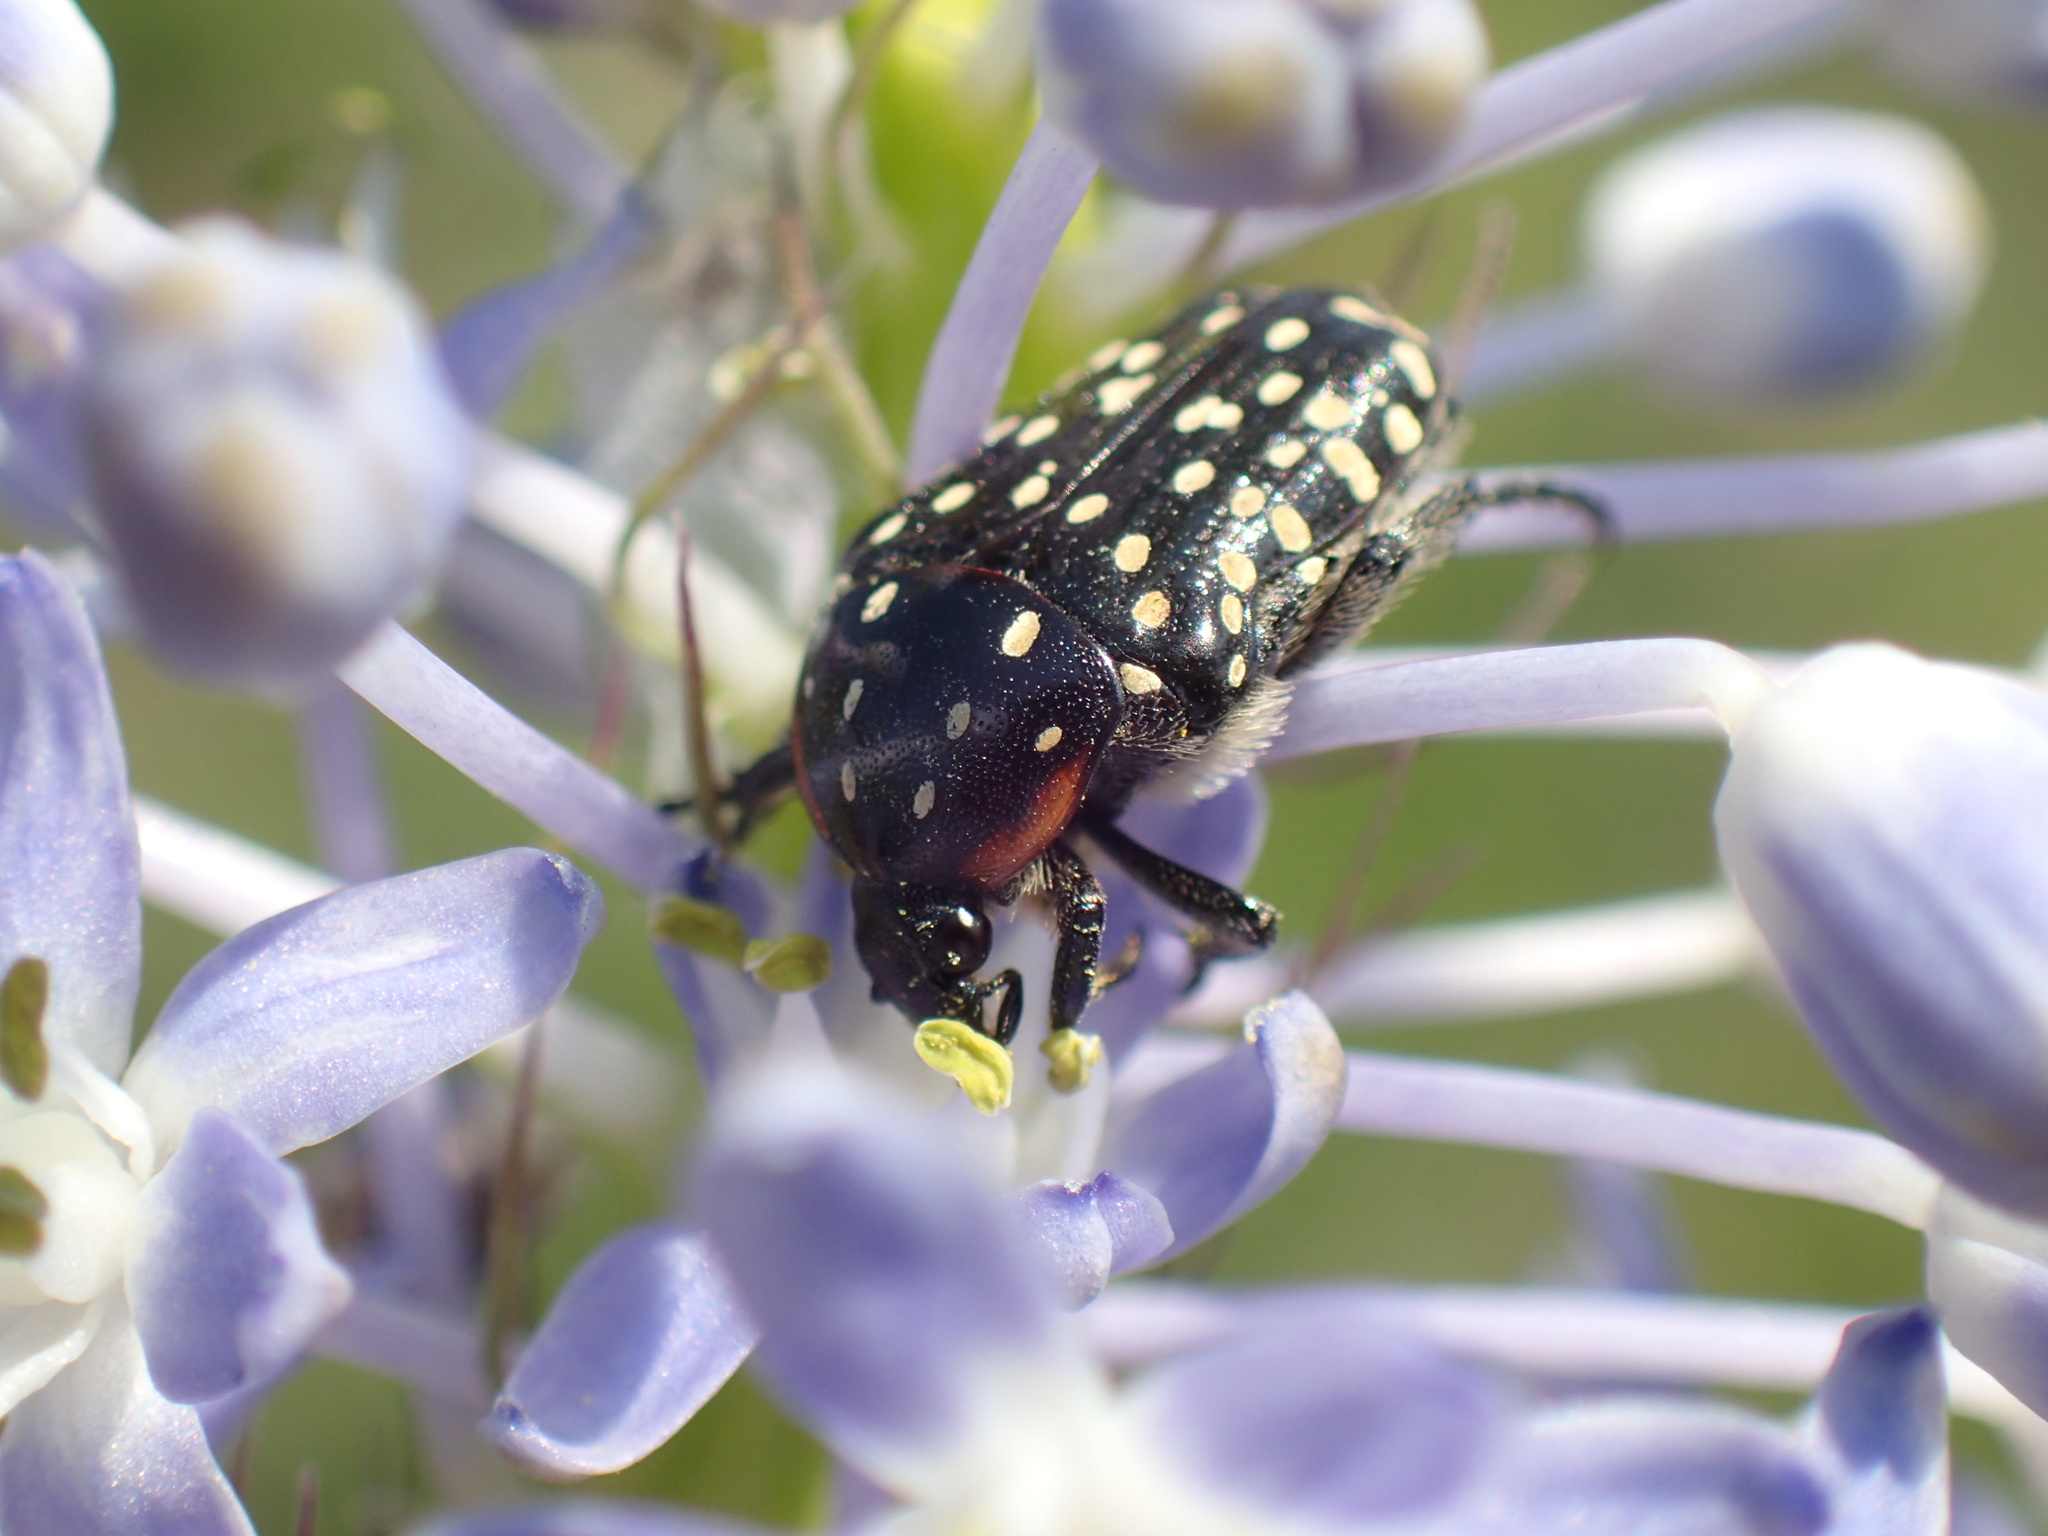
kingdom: Animalia
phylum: Arthropoda
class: Insecta
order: Coleoptera
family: Scarabaeidae
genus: Oxythyrea
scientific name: Oxythyrea
